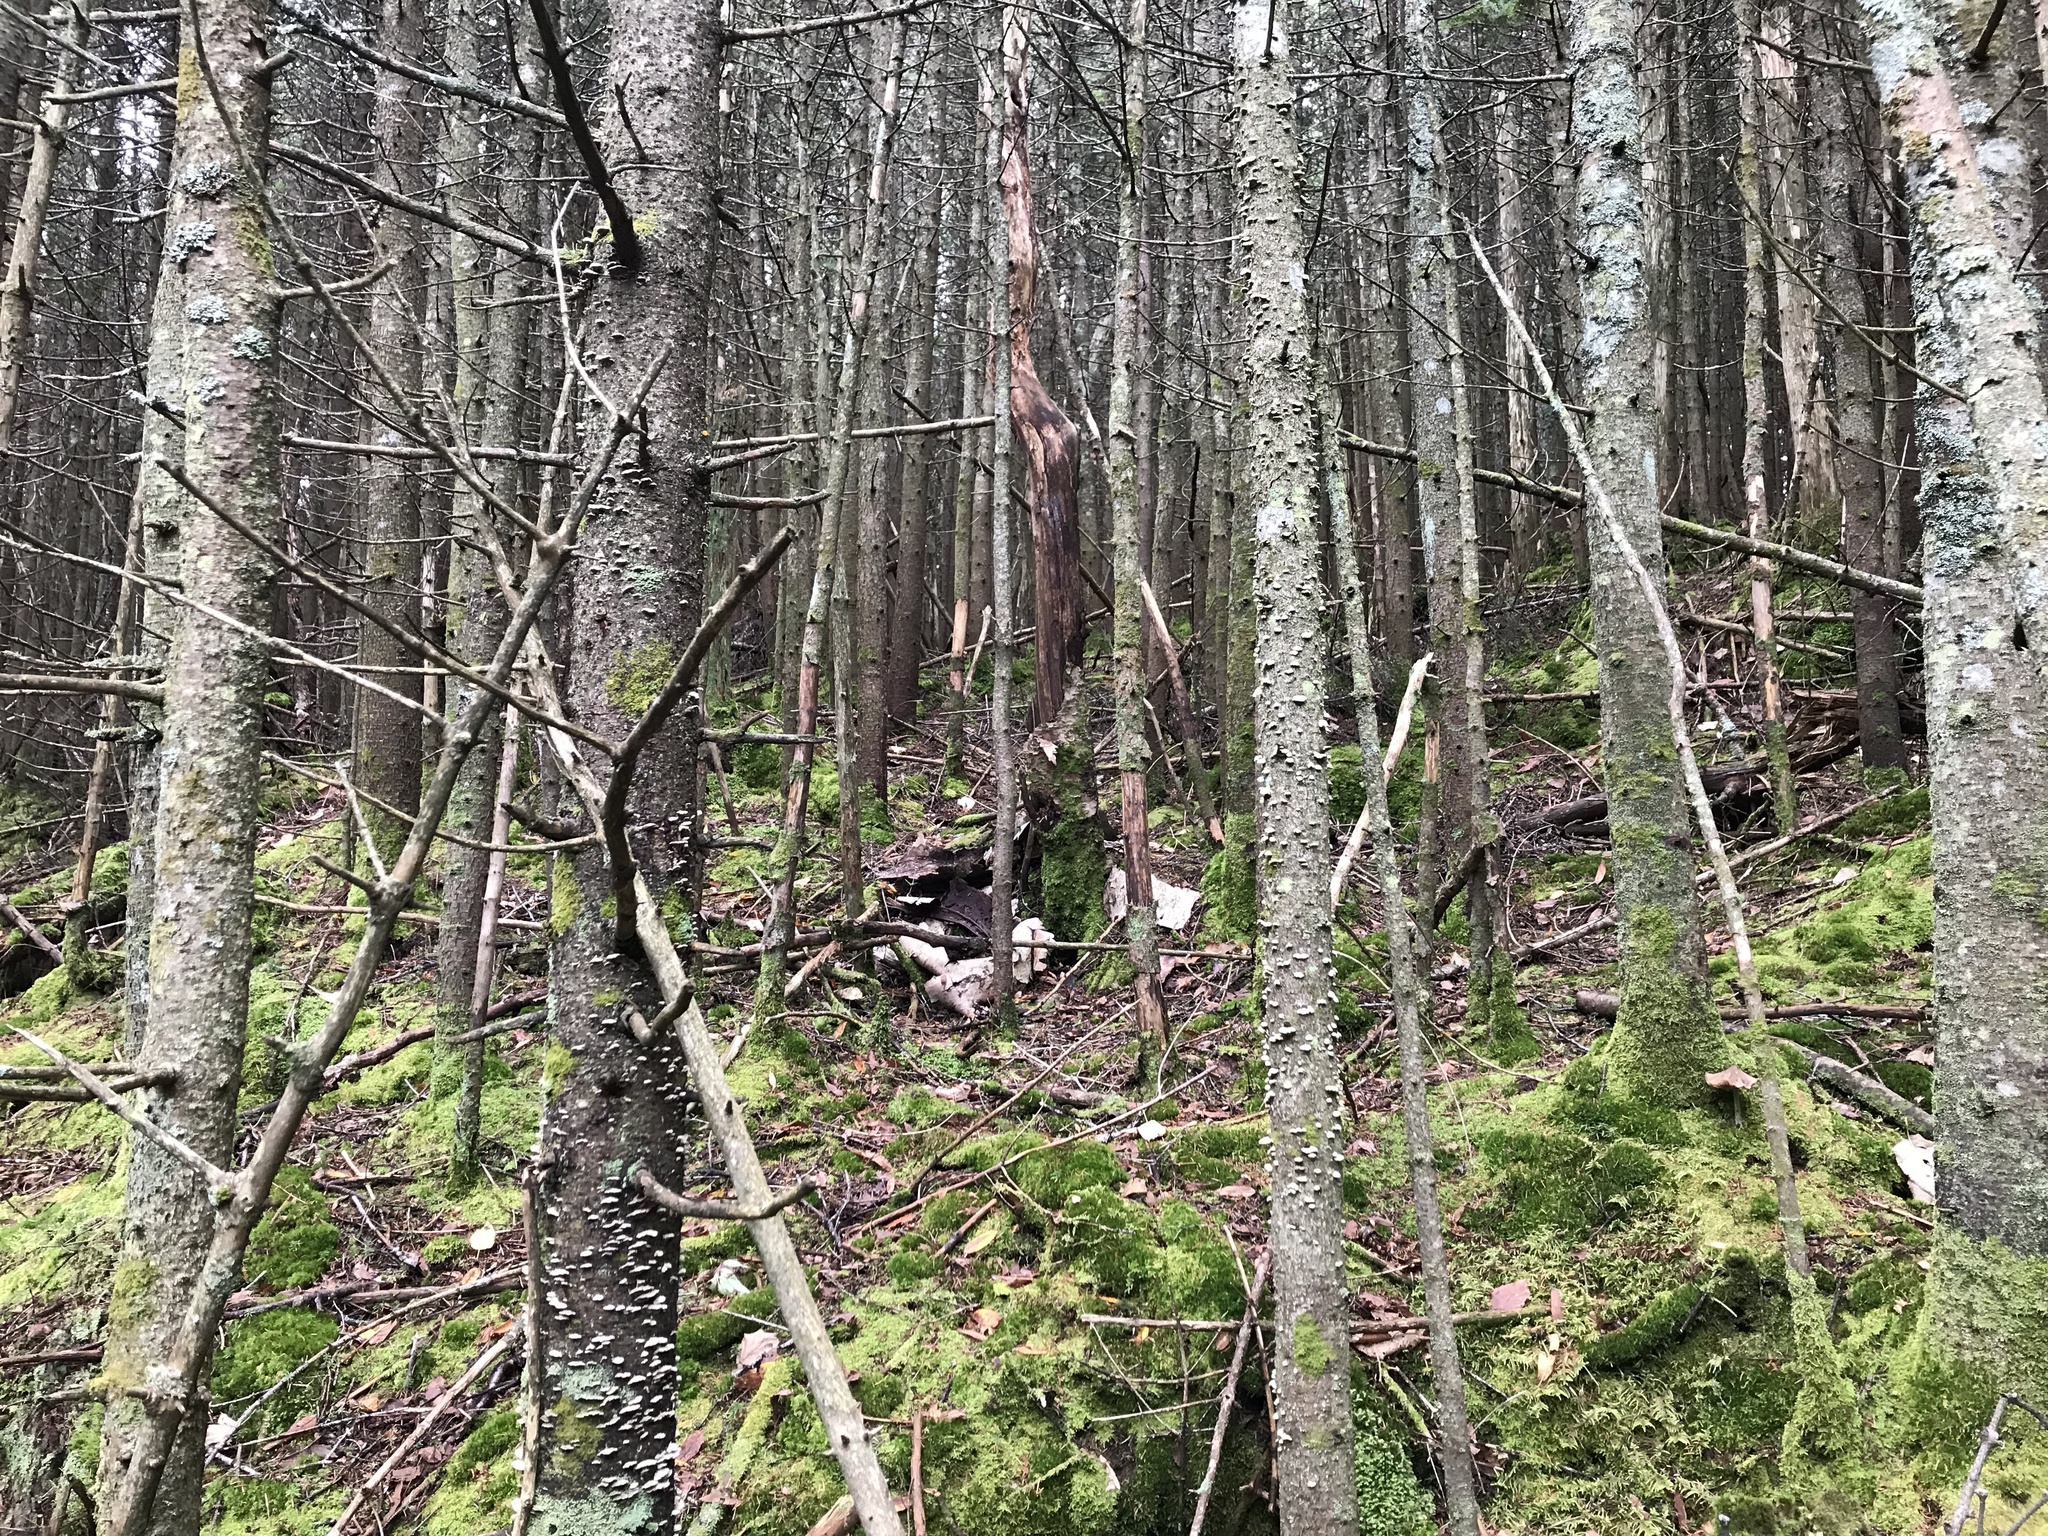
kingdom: Plantae
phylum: Tracheophyta
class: Pinopsida
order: Pinales
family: Pinaceae
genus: Abies
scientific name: Abies balsamea
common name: Balsam fir
